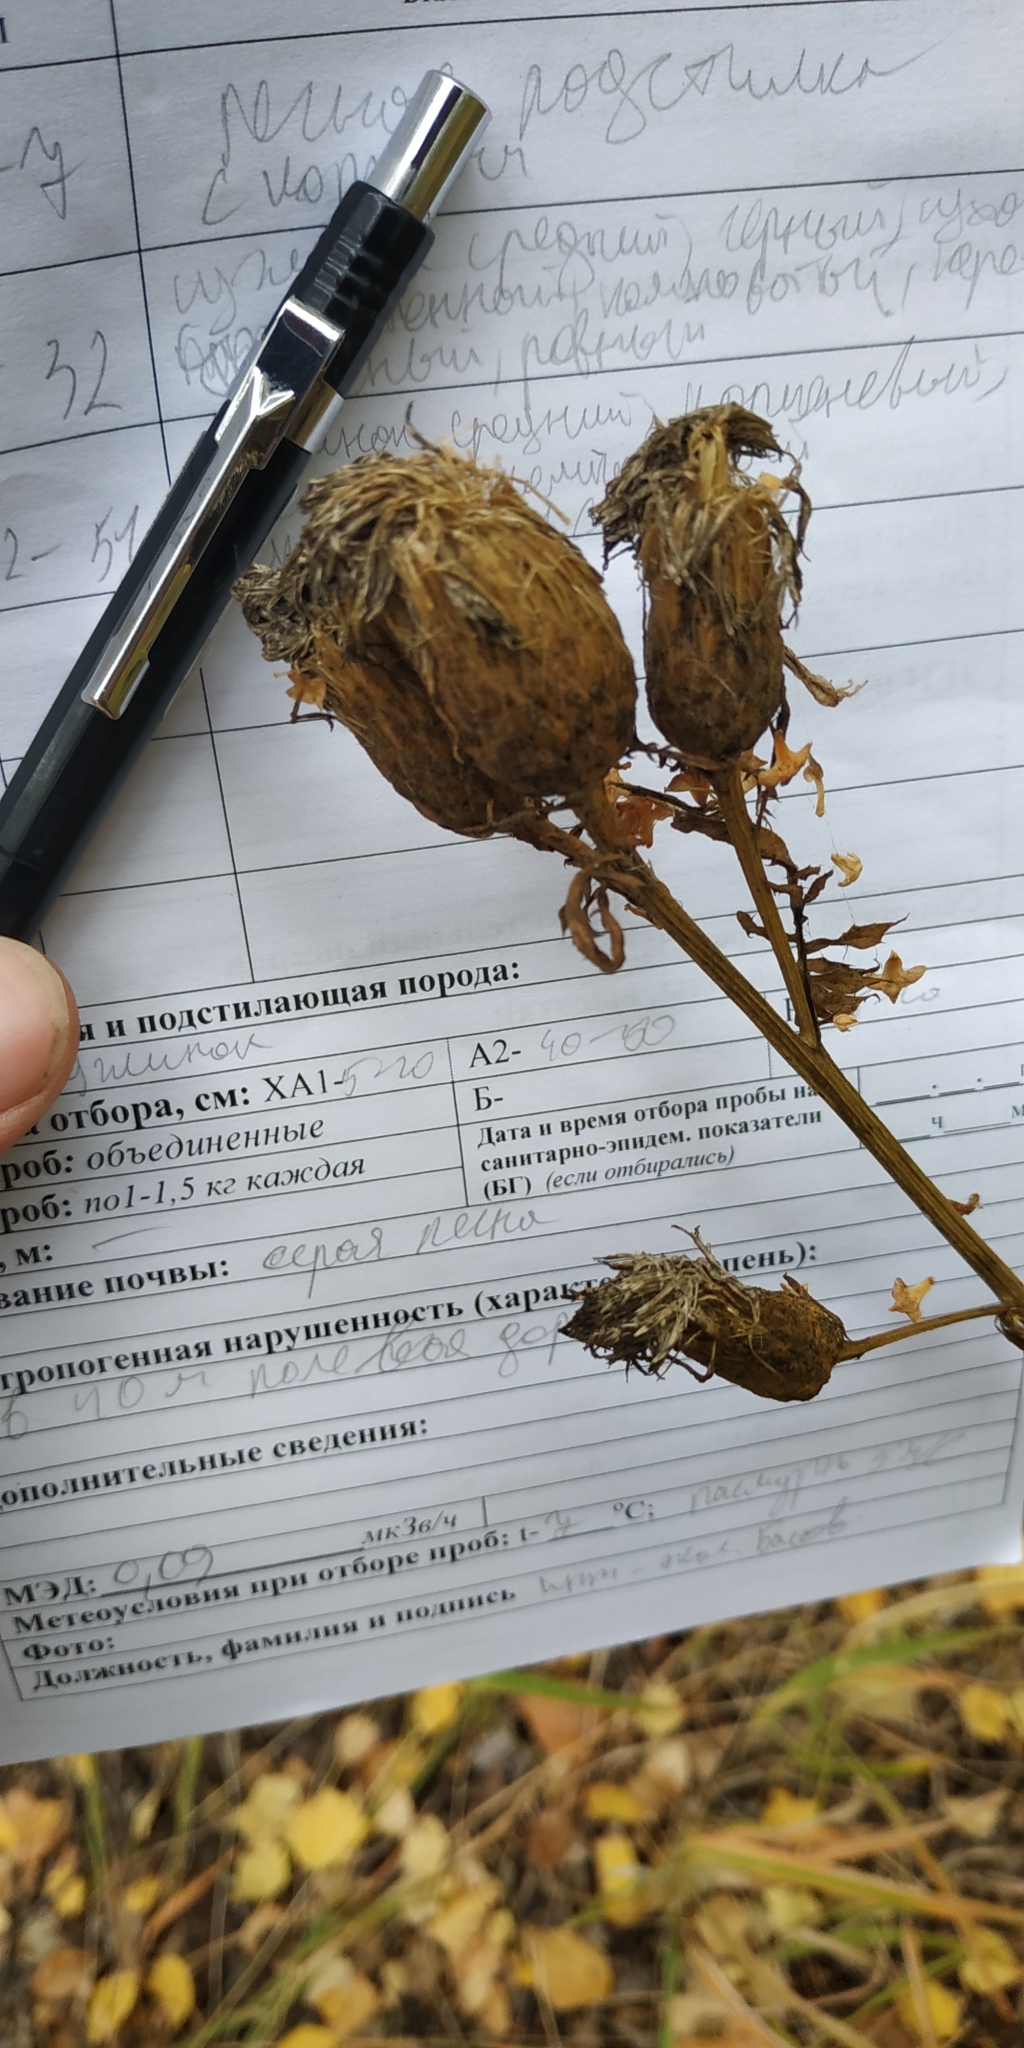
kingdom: Plantae
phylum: Tracheophyta
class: Magnoliopsida
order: Asterales
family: Asteraceae
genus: Serratula
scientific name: Serratula coronata
